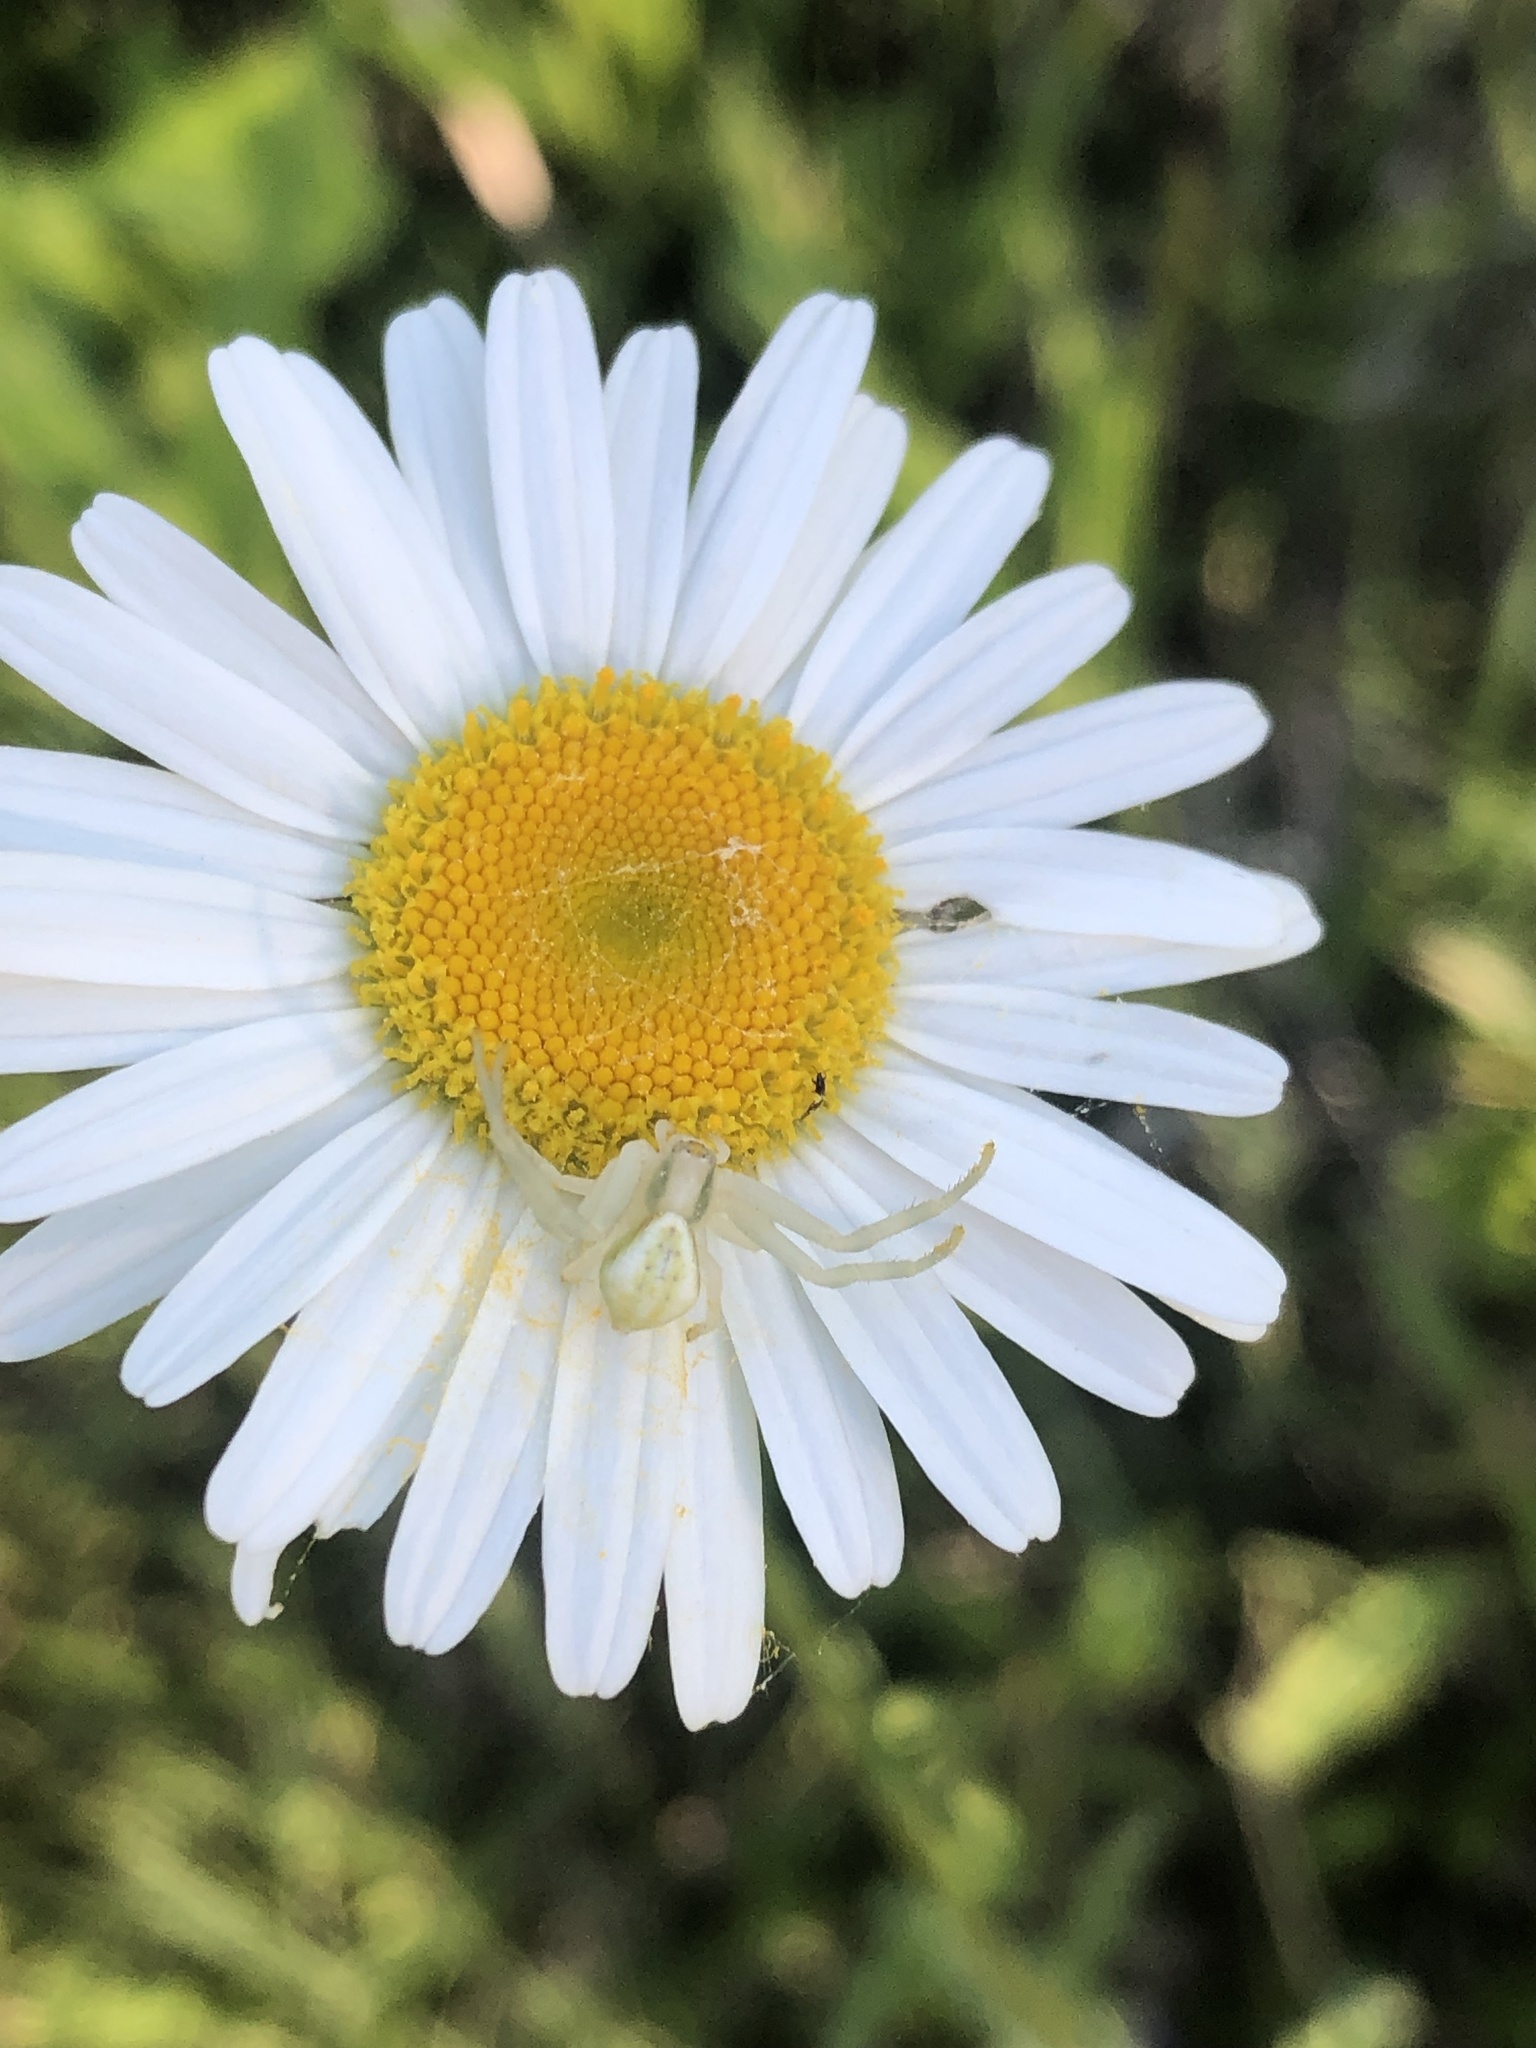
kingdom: Animalia
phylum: Arthropoda
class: Arachnida
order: Araneae
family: Thomisidae
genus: Misumena
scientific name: Misumena vatia
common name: Goldenrod crab spider
